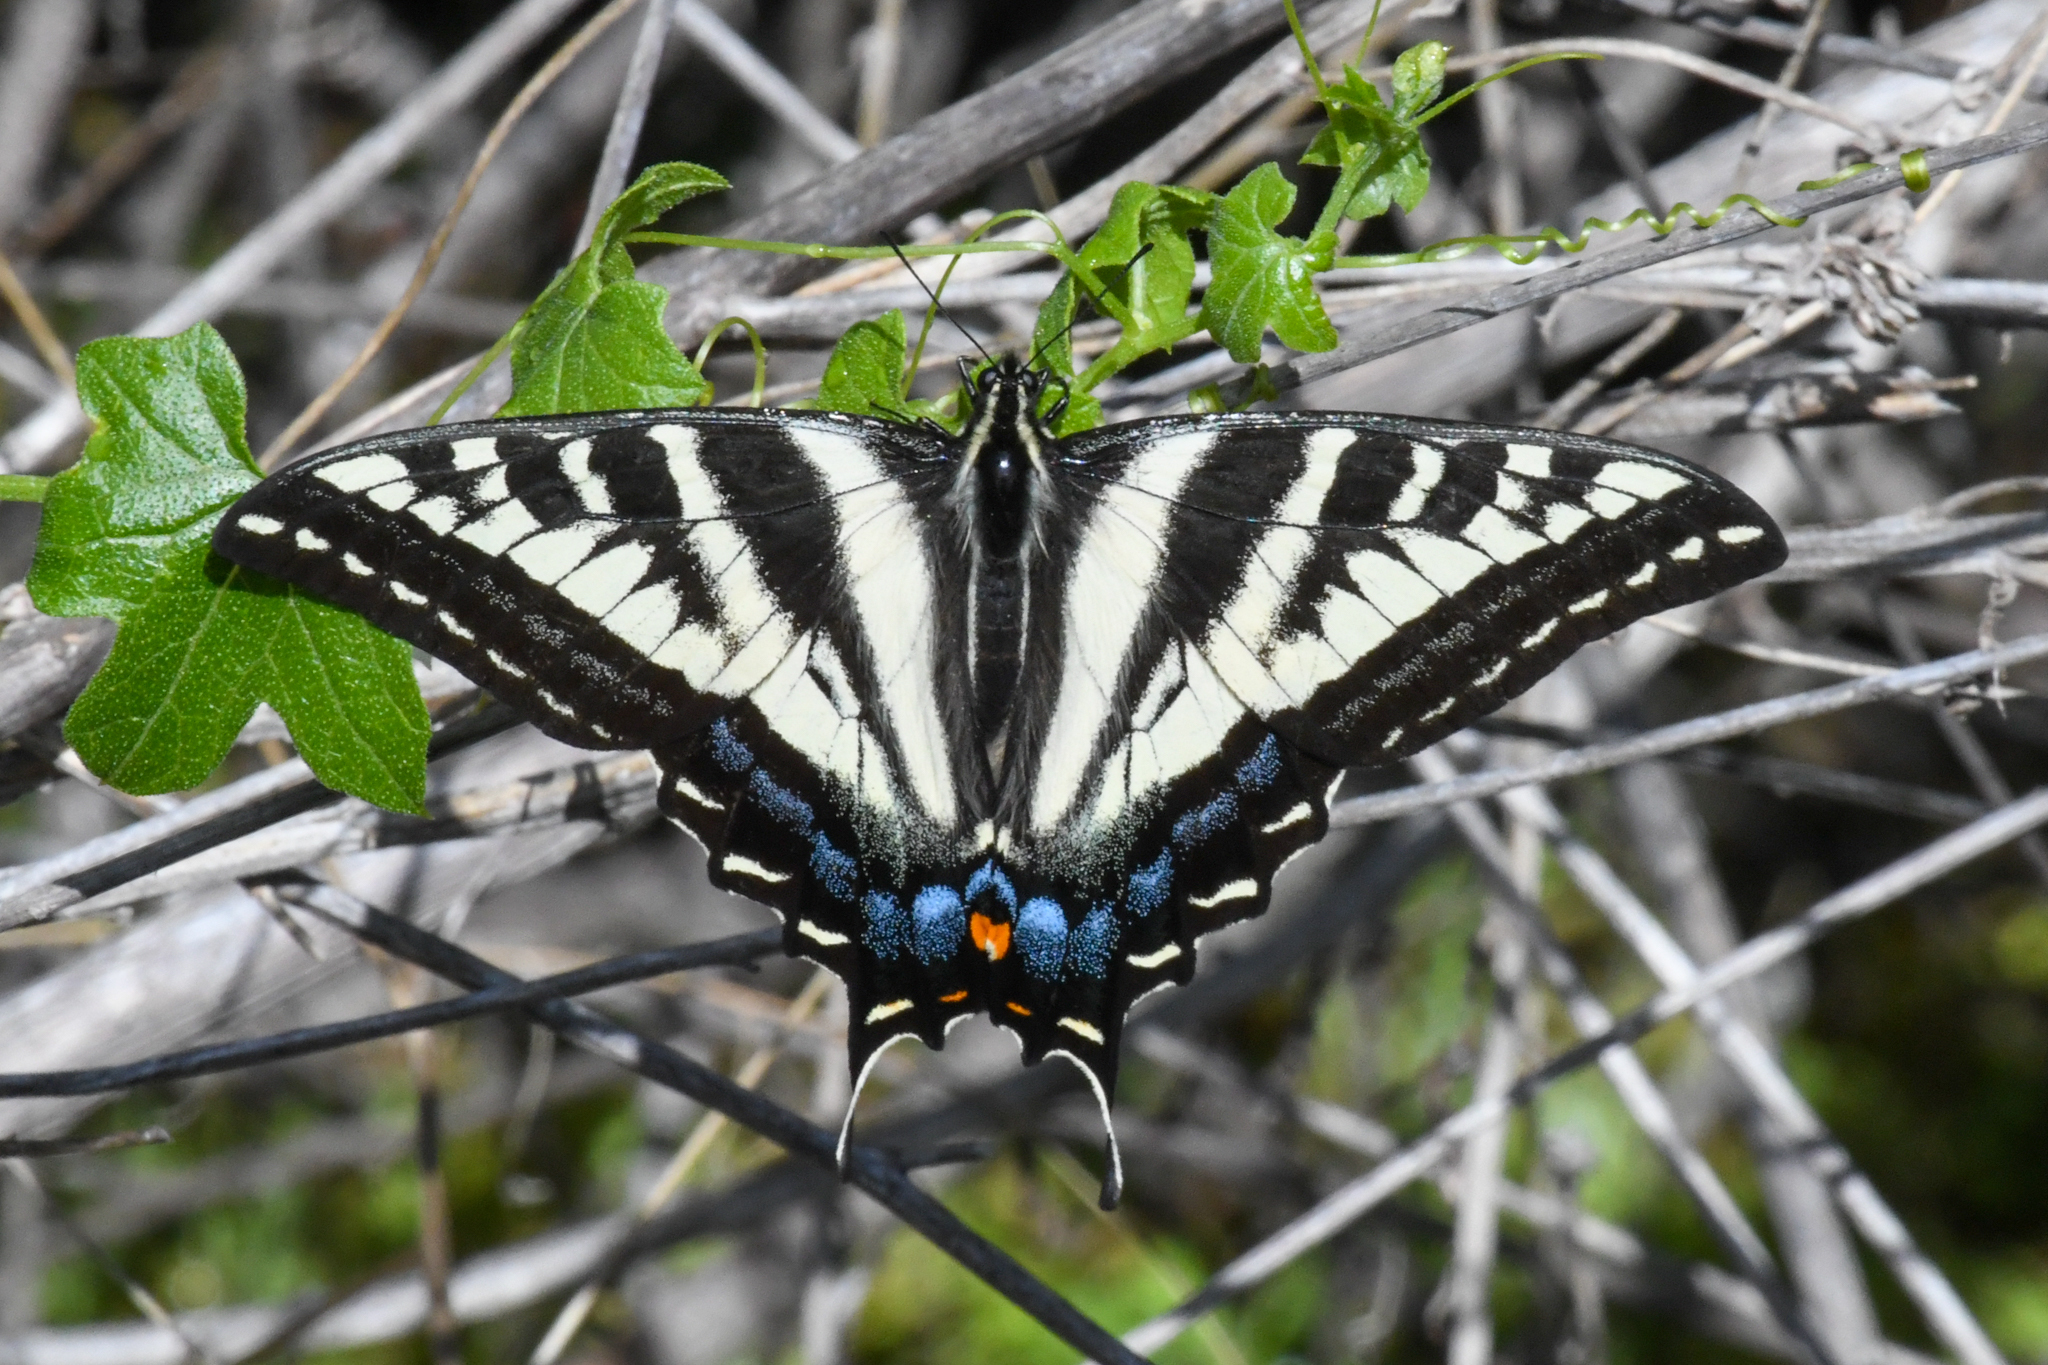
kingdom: Animalia
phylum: Arthropoda
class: Insecta
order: Lepidoptera
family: Papilionidae
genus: Papilio
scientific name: Papilio eurymedon
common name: Pale tiger swallowtail
